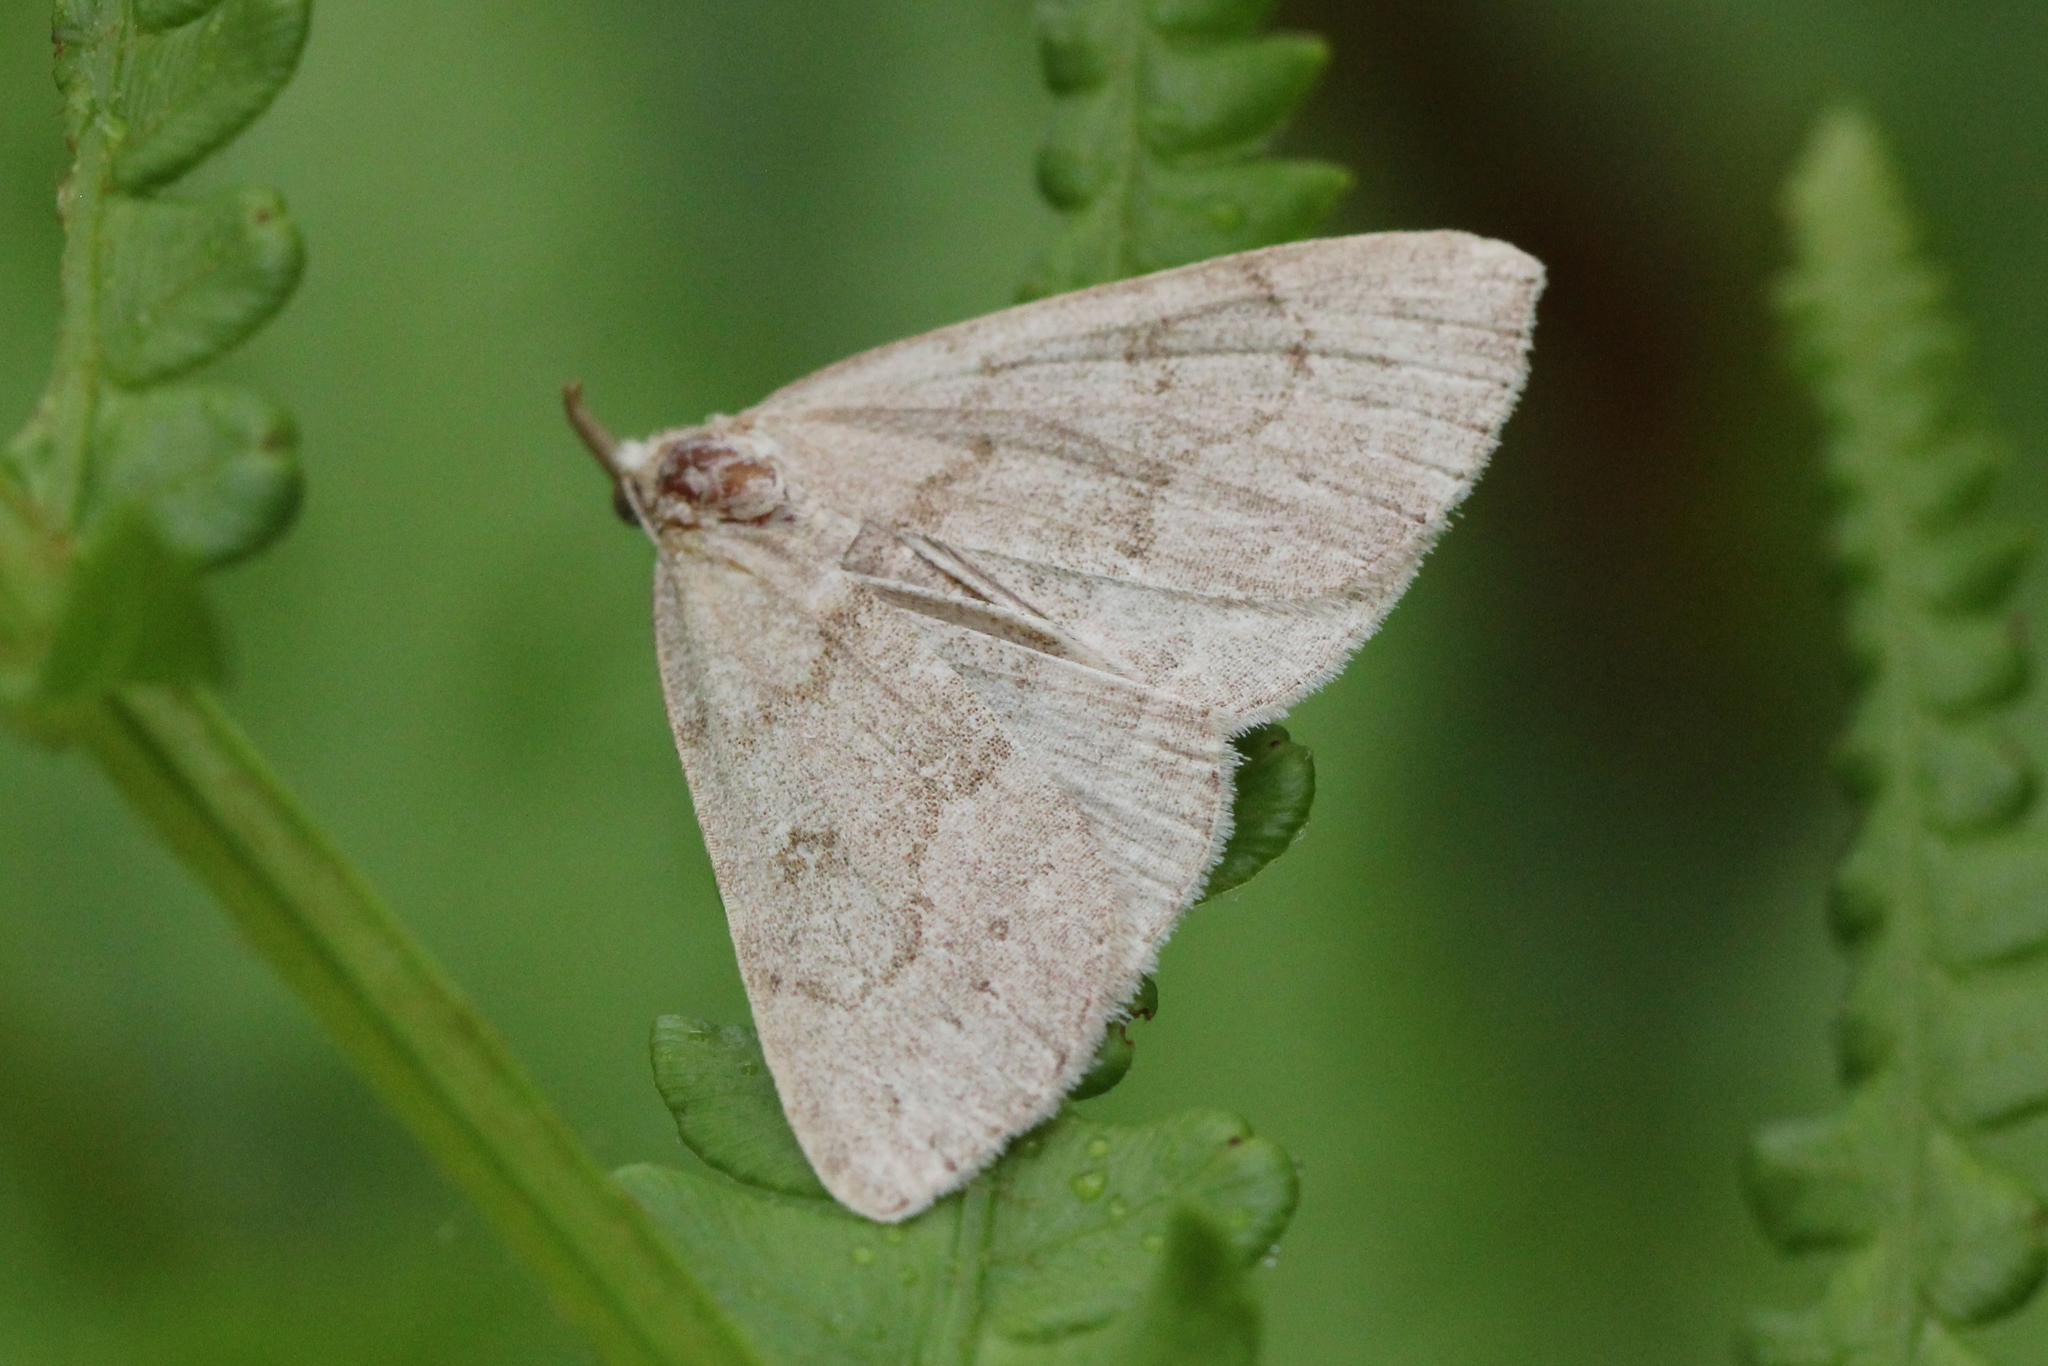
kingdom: Animalia
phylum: Arthropoda
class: Insecta
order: Lepidoptera
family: Erebidae
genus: Macrochilo
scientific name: Macrochilo morbidalis
